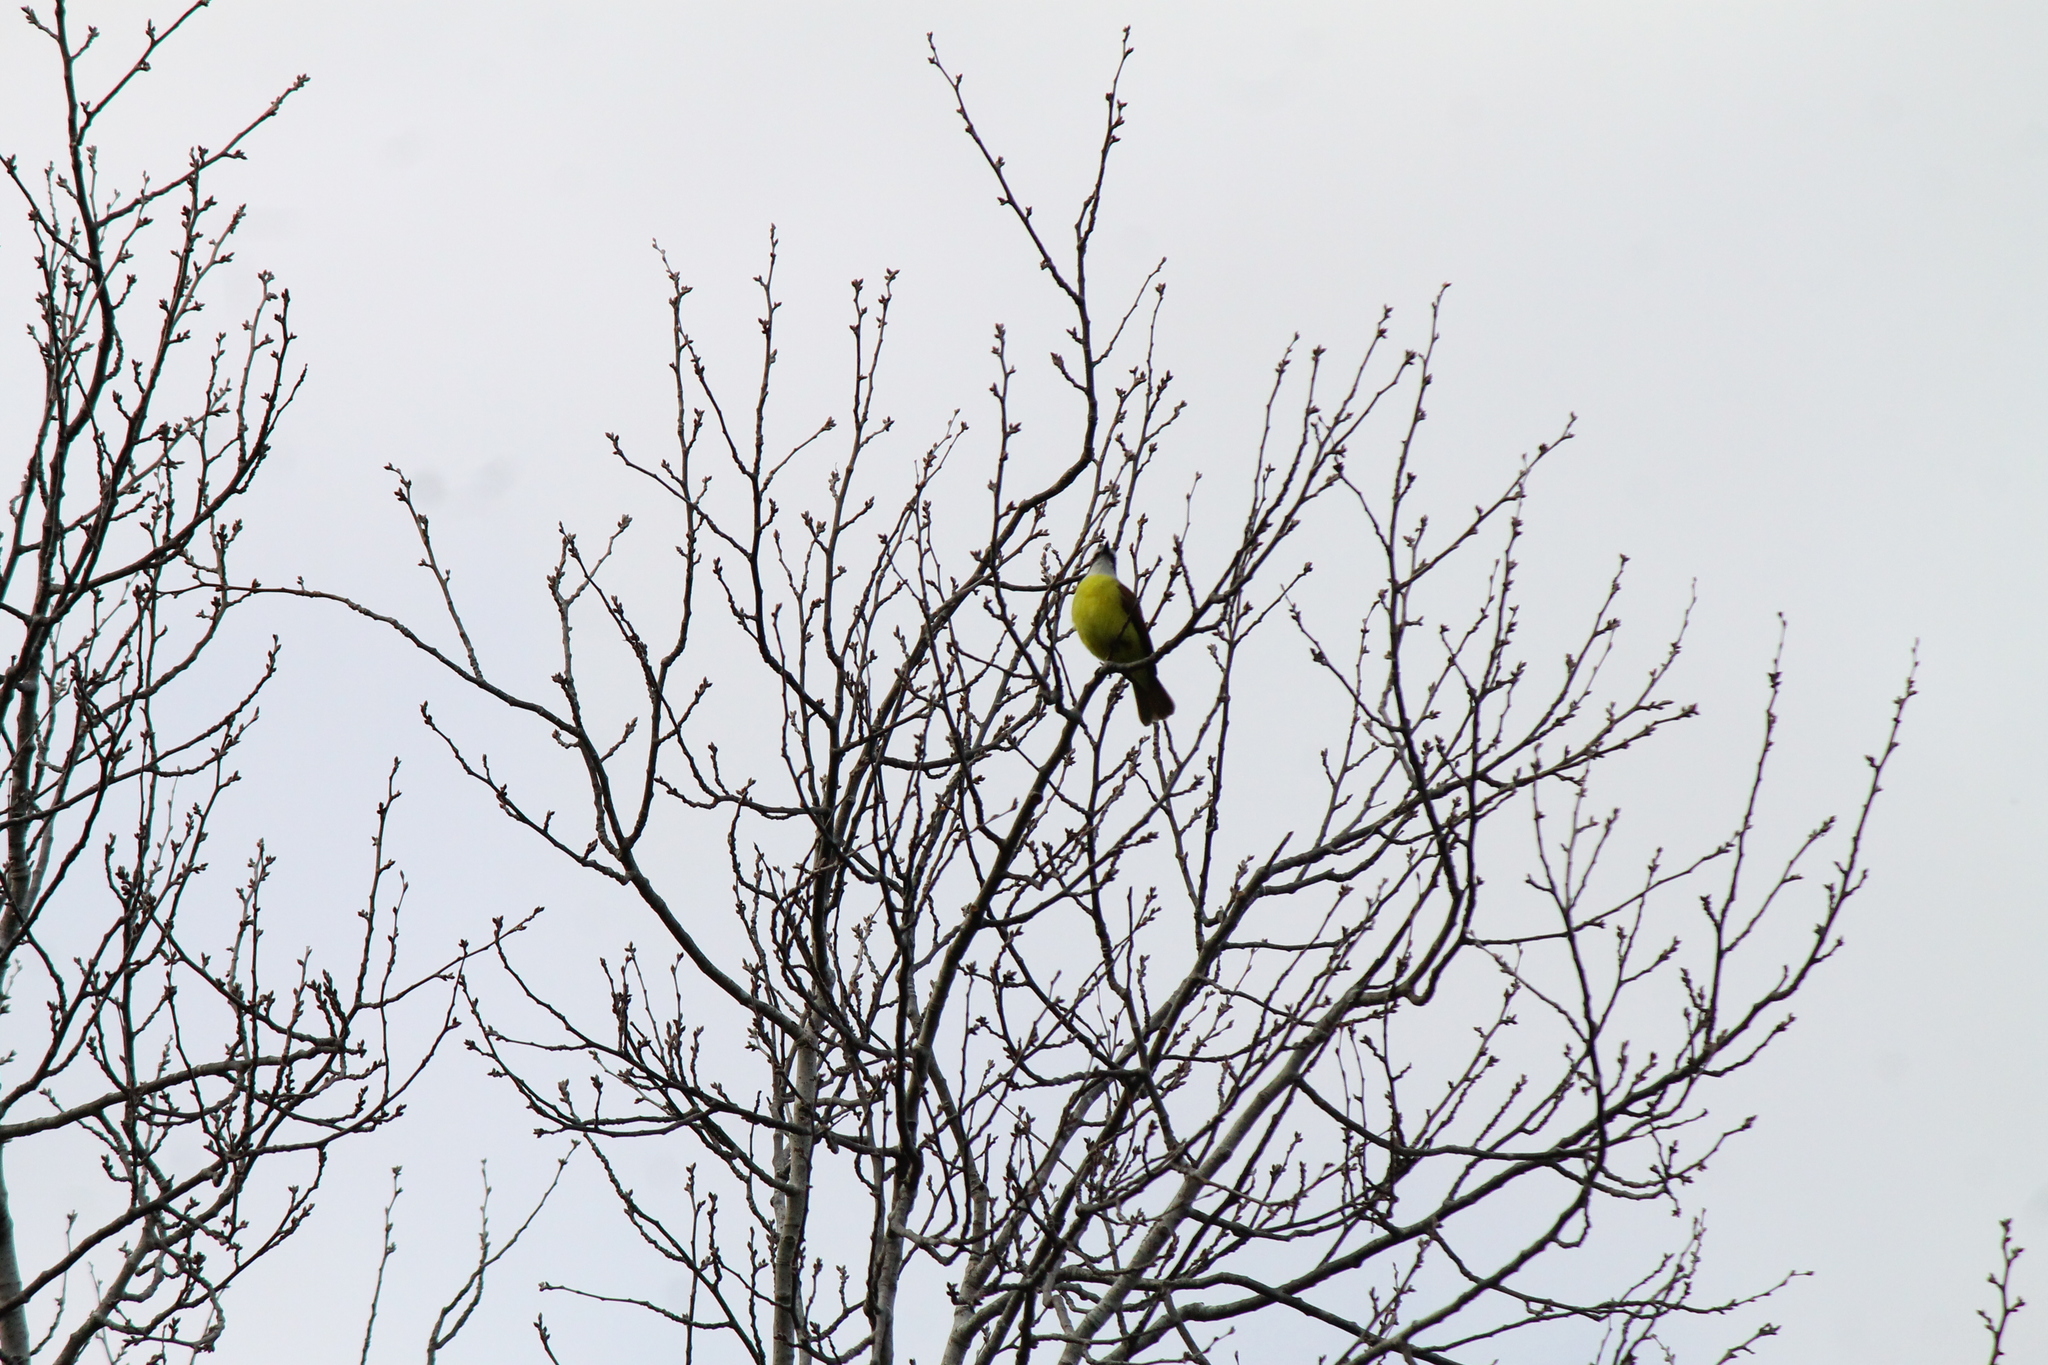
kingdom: Animalia
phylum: Chordata
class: Aves
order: Passeriformes
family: Tyrannidae
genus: Pitangus
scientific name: Pitangus sulphuratus
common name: Great kiskadee
